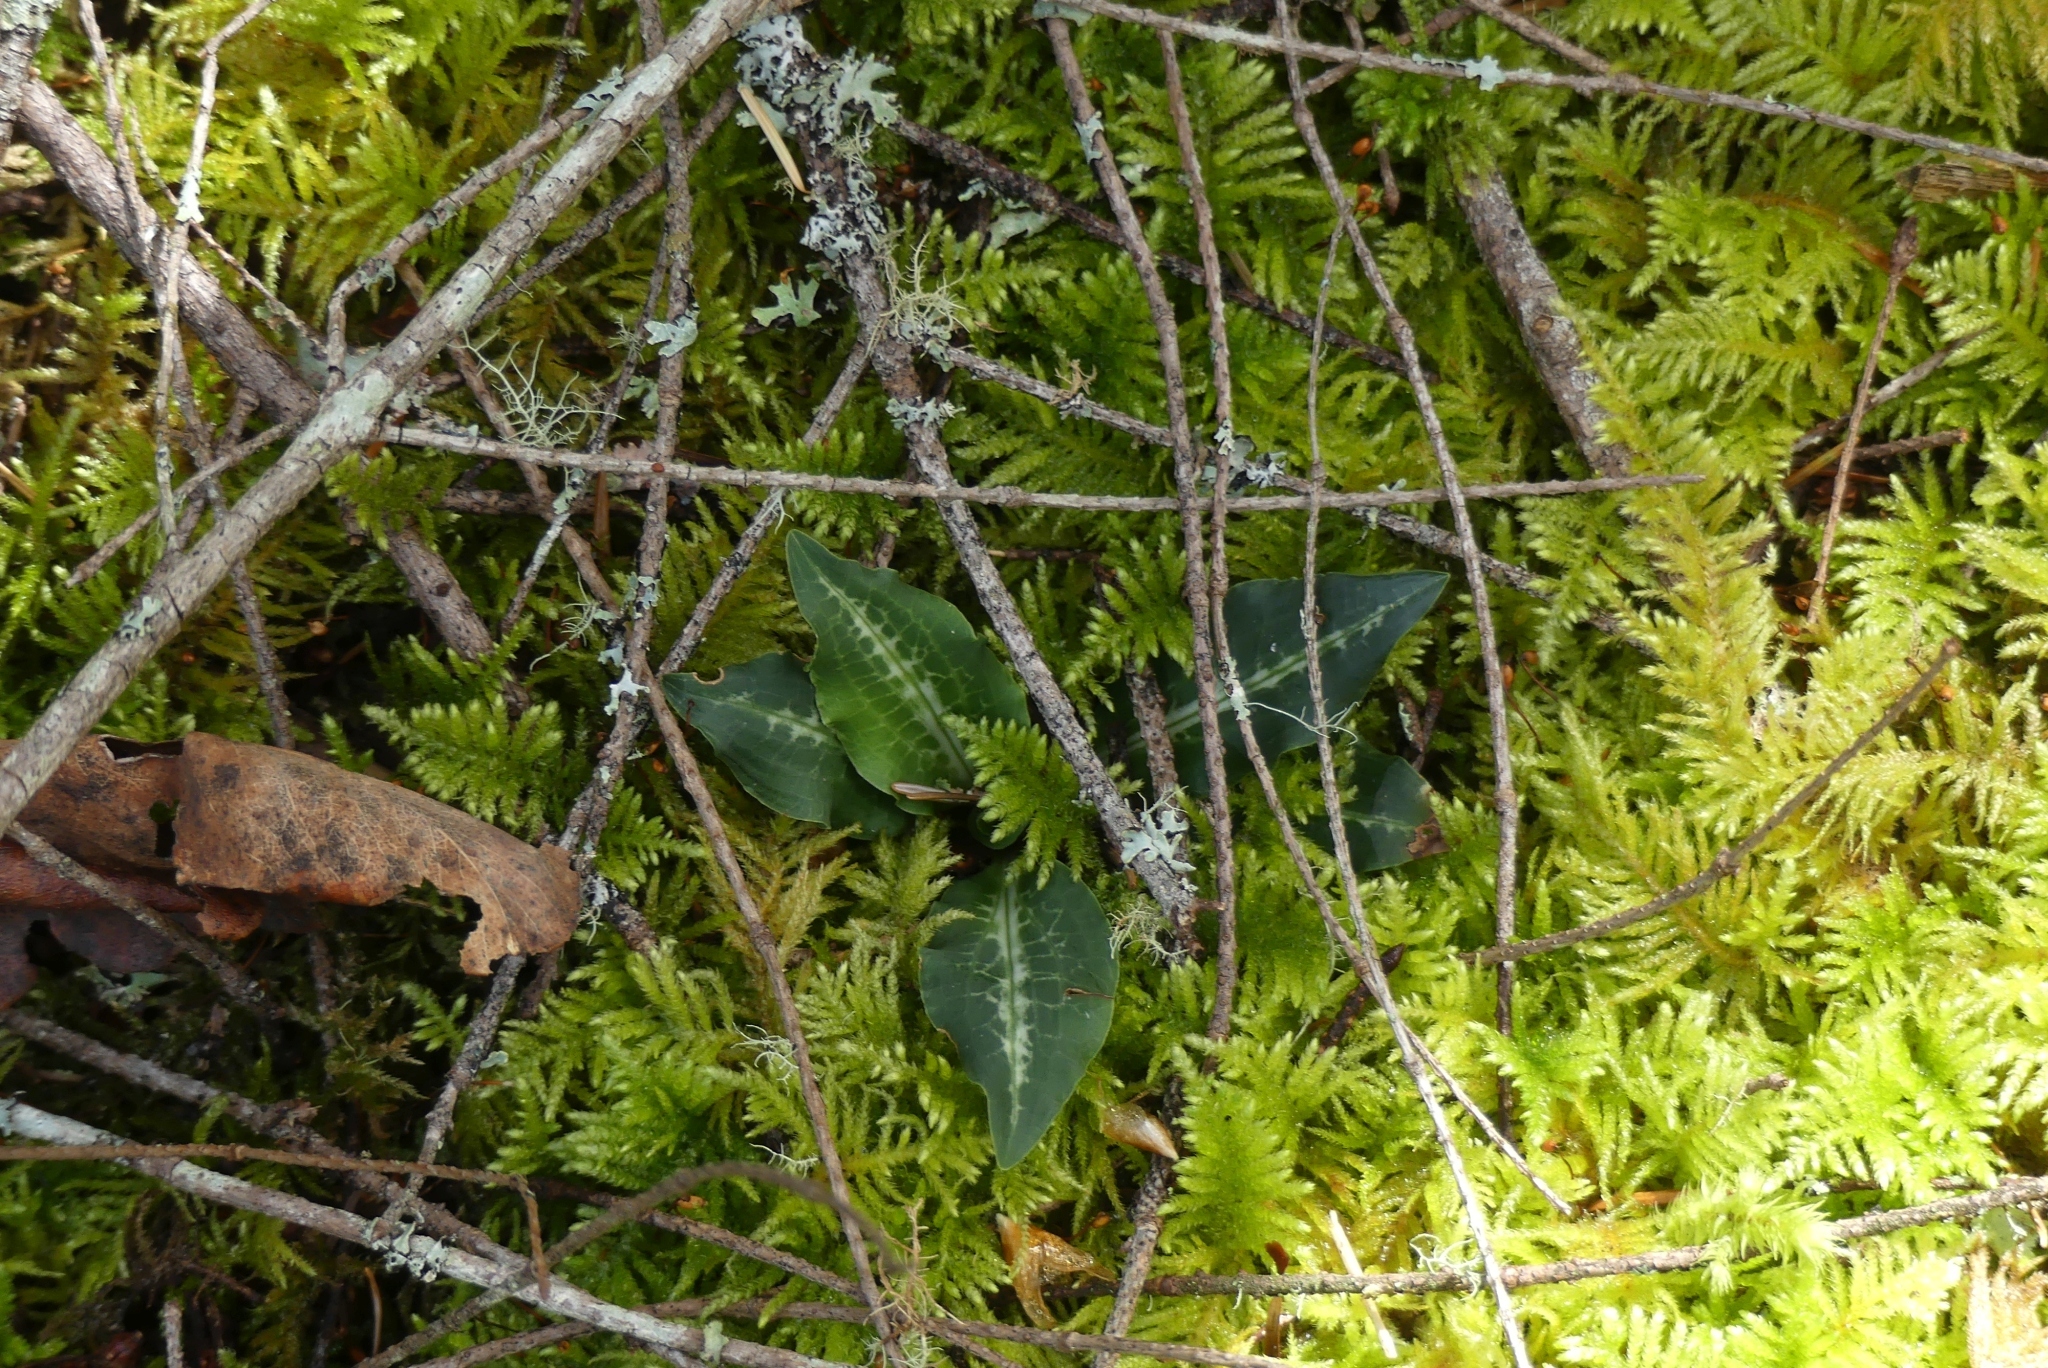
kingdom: Plantae
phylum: Tracheophyta
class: Liliopsida
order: Asparagales
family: Orchidaceae
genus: Goodyera
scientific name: Goodyera oblongifolia
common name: Giant rattlesnake-plantain
